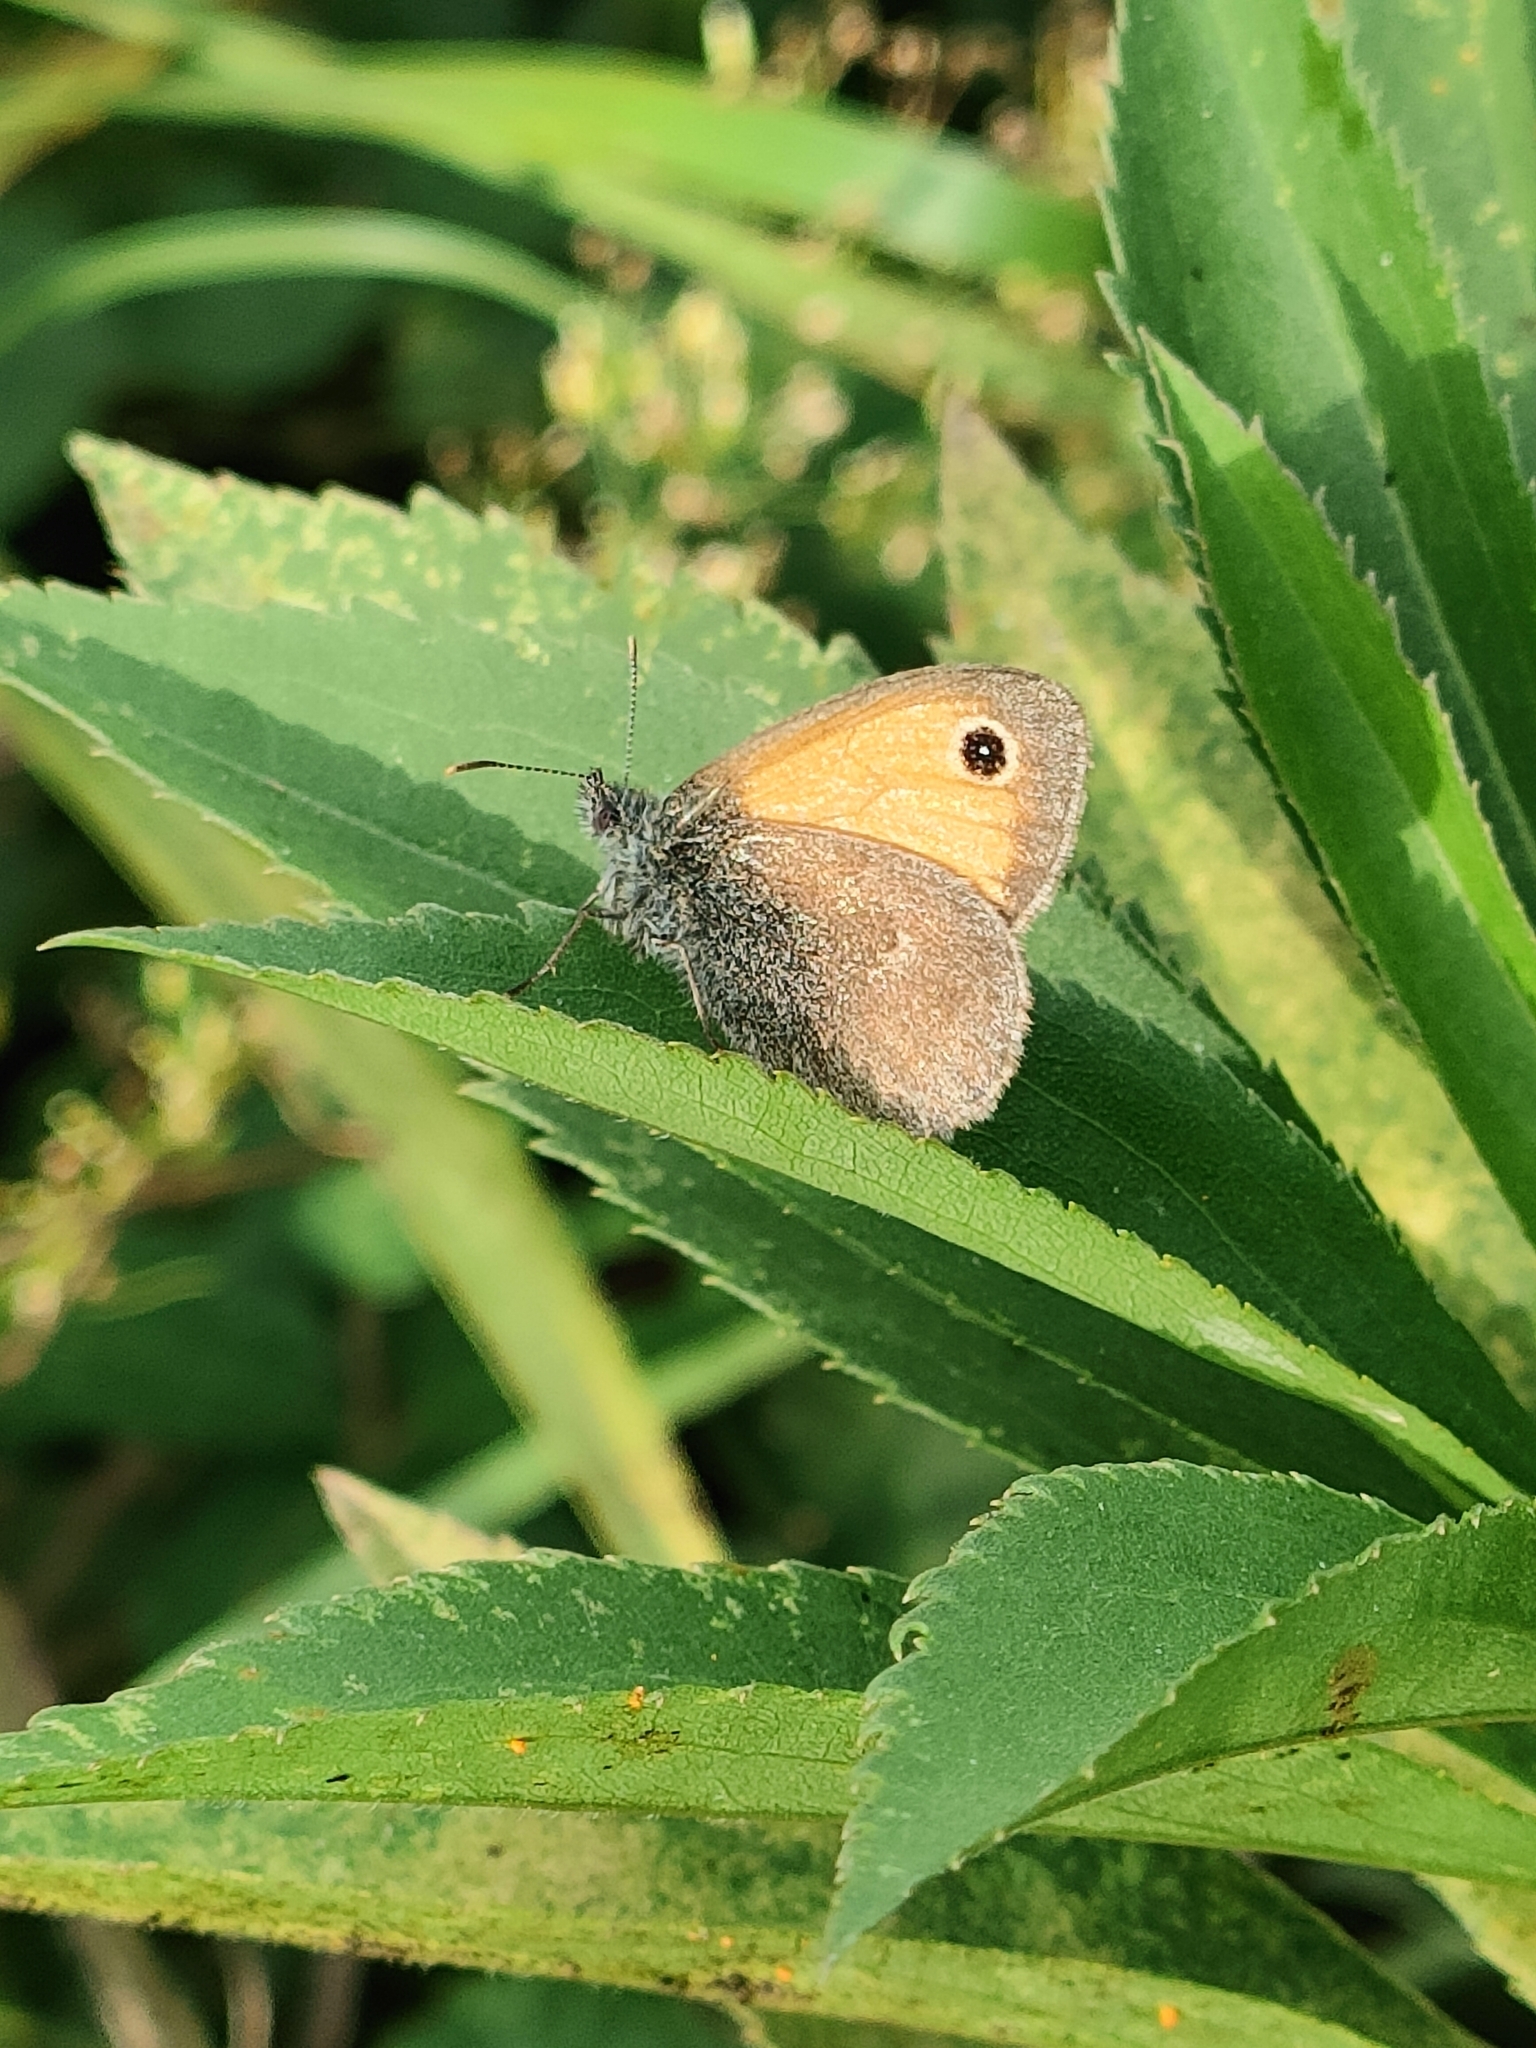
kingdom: Animalia
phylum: Arthropoda
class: Insecta
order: Lepidoptera
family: Nymphalidae
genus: Coenonympha
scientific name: Coenonympha pamphilus
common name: Small heath
